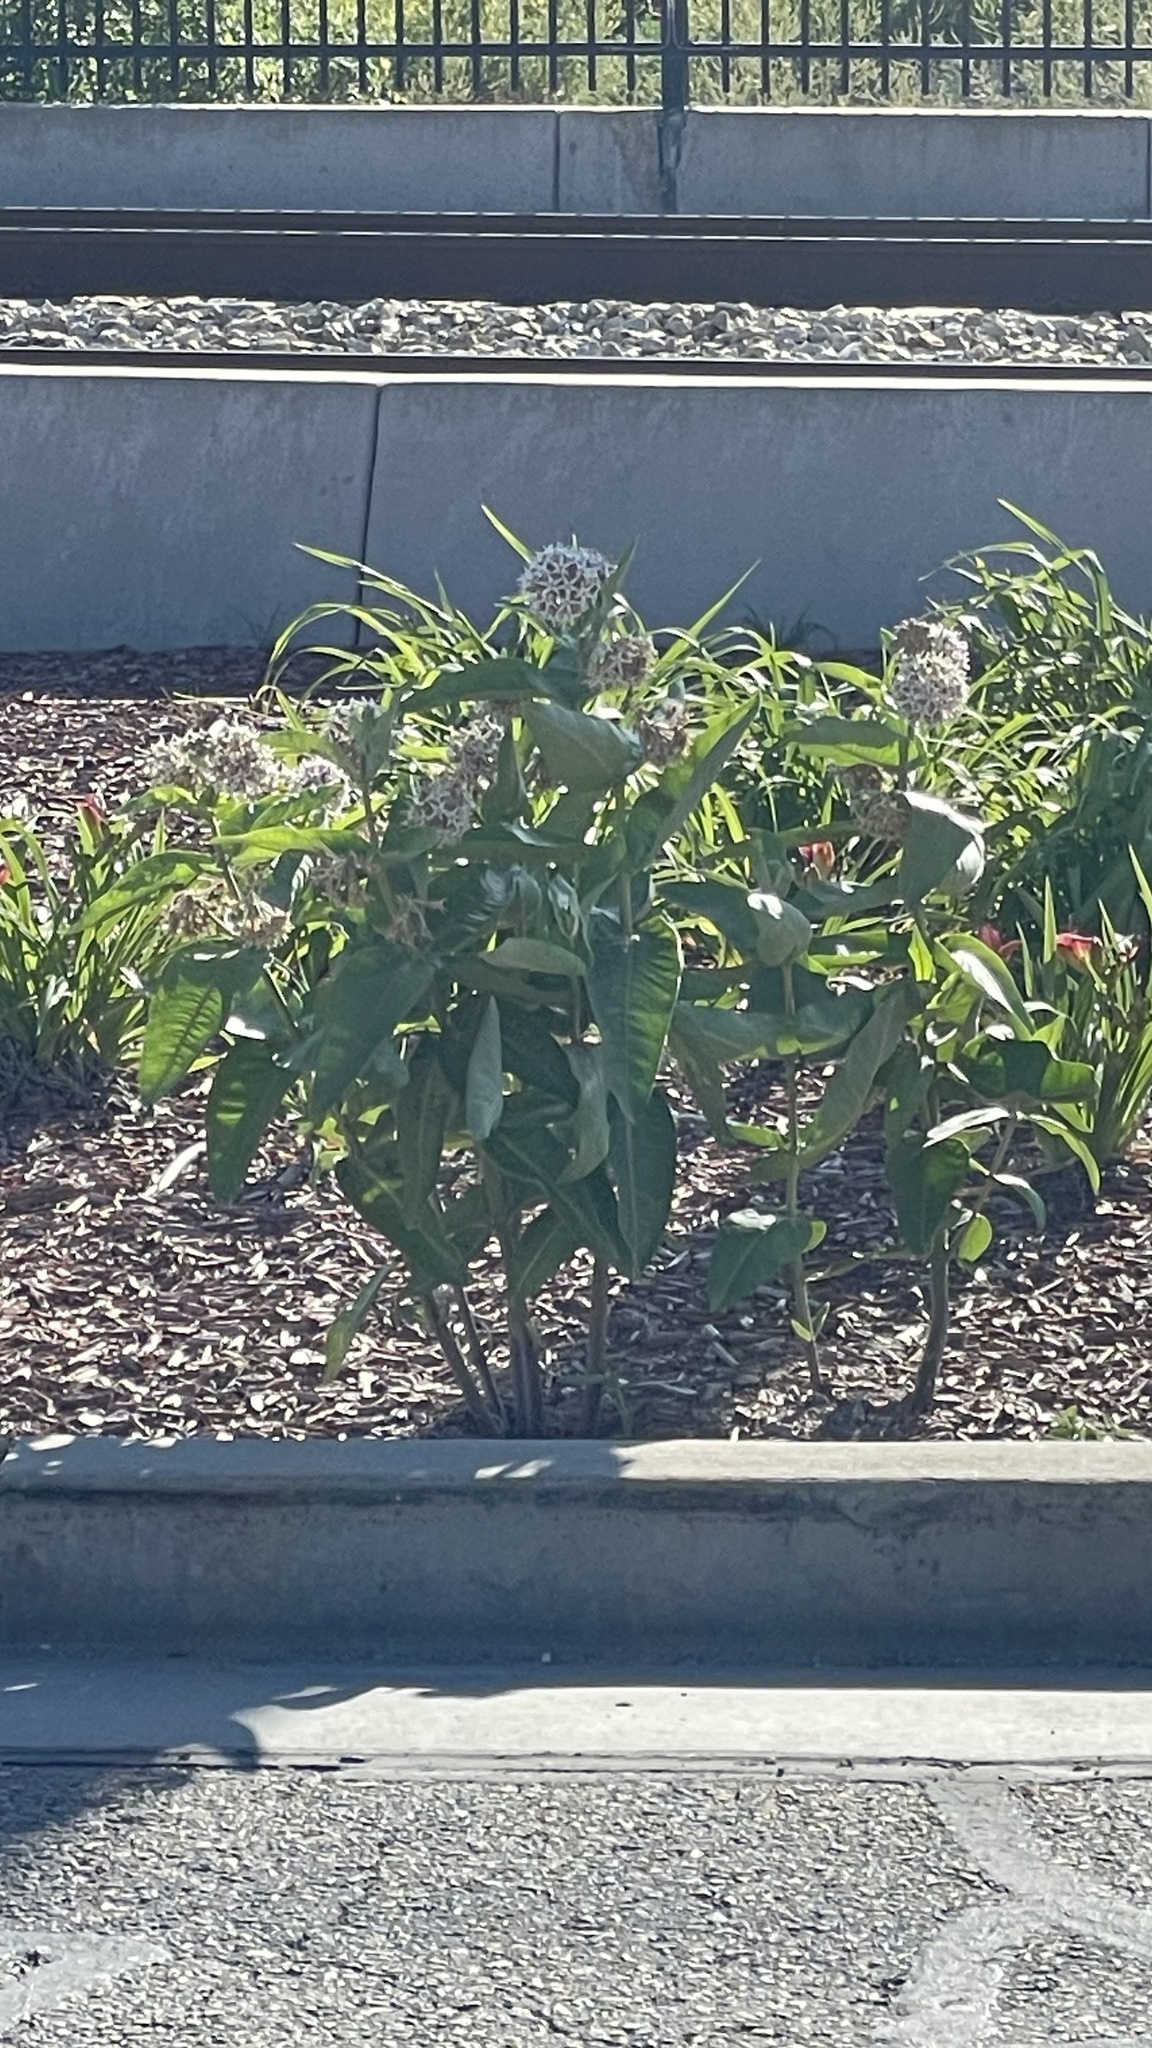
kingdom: Plantae
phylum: Tracheophyta
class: Magnoliopsida
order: Gentianales
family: Apocynaceae
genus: Asclepias
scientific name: Asclepias speciosa
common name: Showy milkweed
